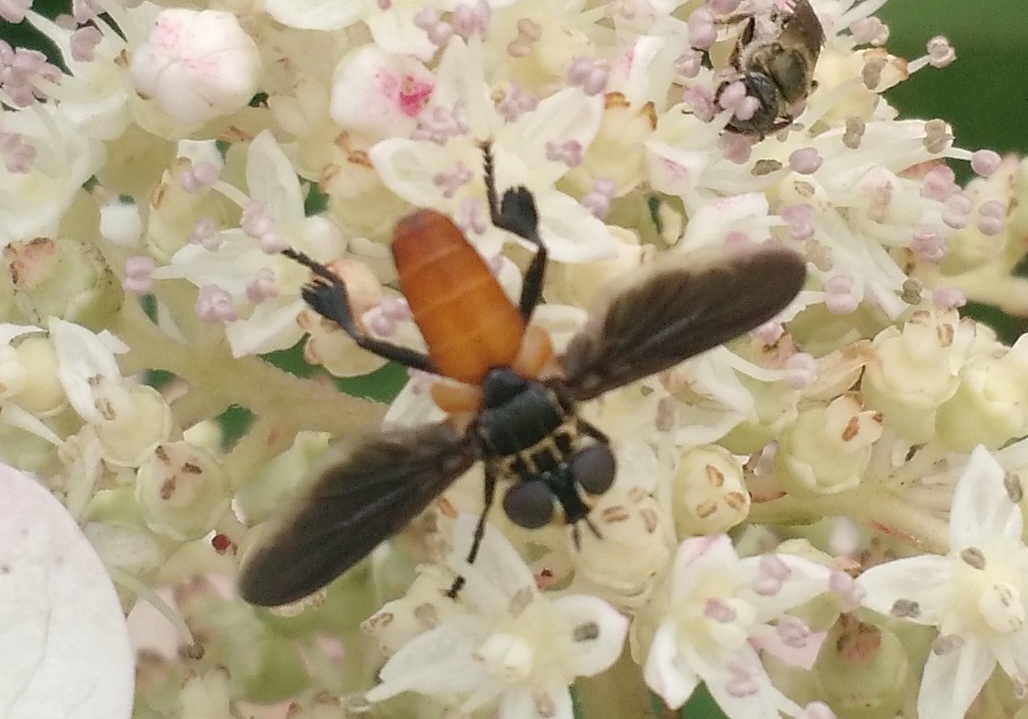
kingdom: Animalia
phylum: Arthropoda
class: Insecta
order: Diptera
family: Tachinidae
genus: Trichopoda
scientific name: Trichopoda pennipes
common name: Tachinid fly
